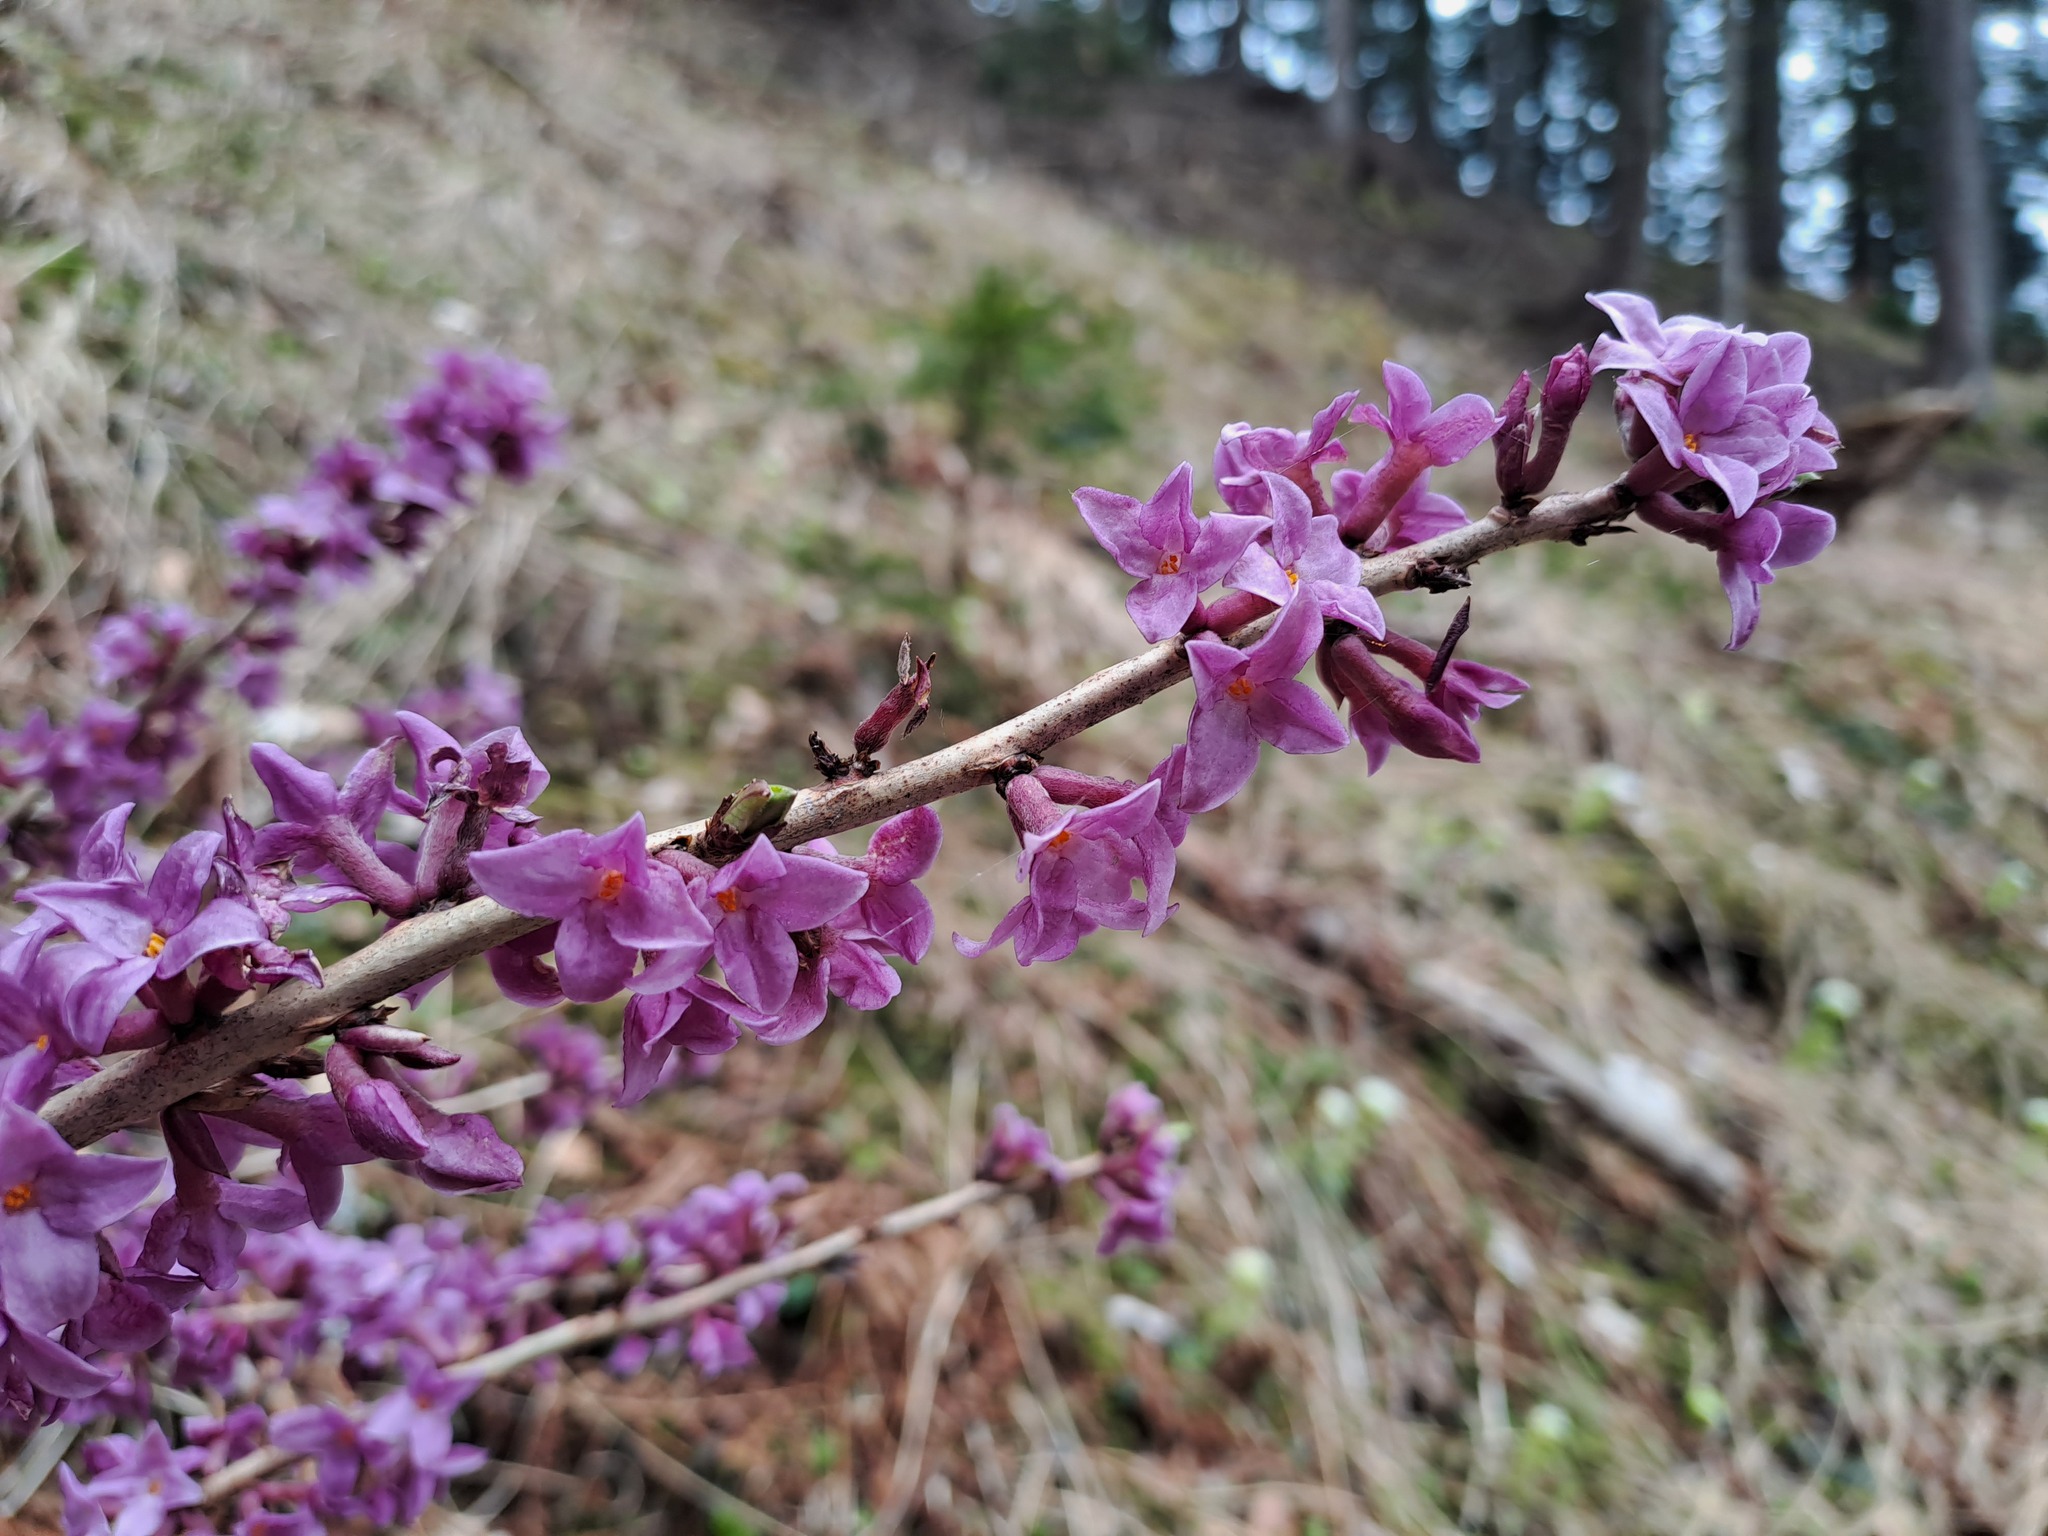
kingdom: Plantae
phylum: Tracheophyta
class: Magnoliopsida
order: Malvales
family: Thymelaeaceae
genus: Daphne
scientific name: Daphne mezereum
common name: Mezereon
